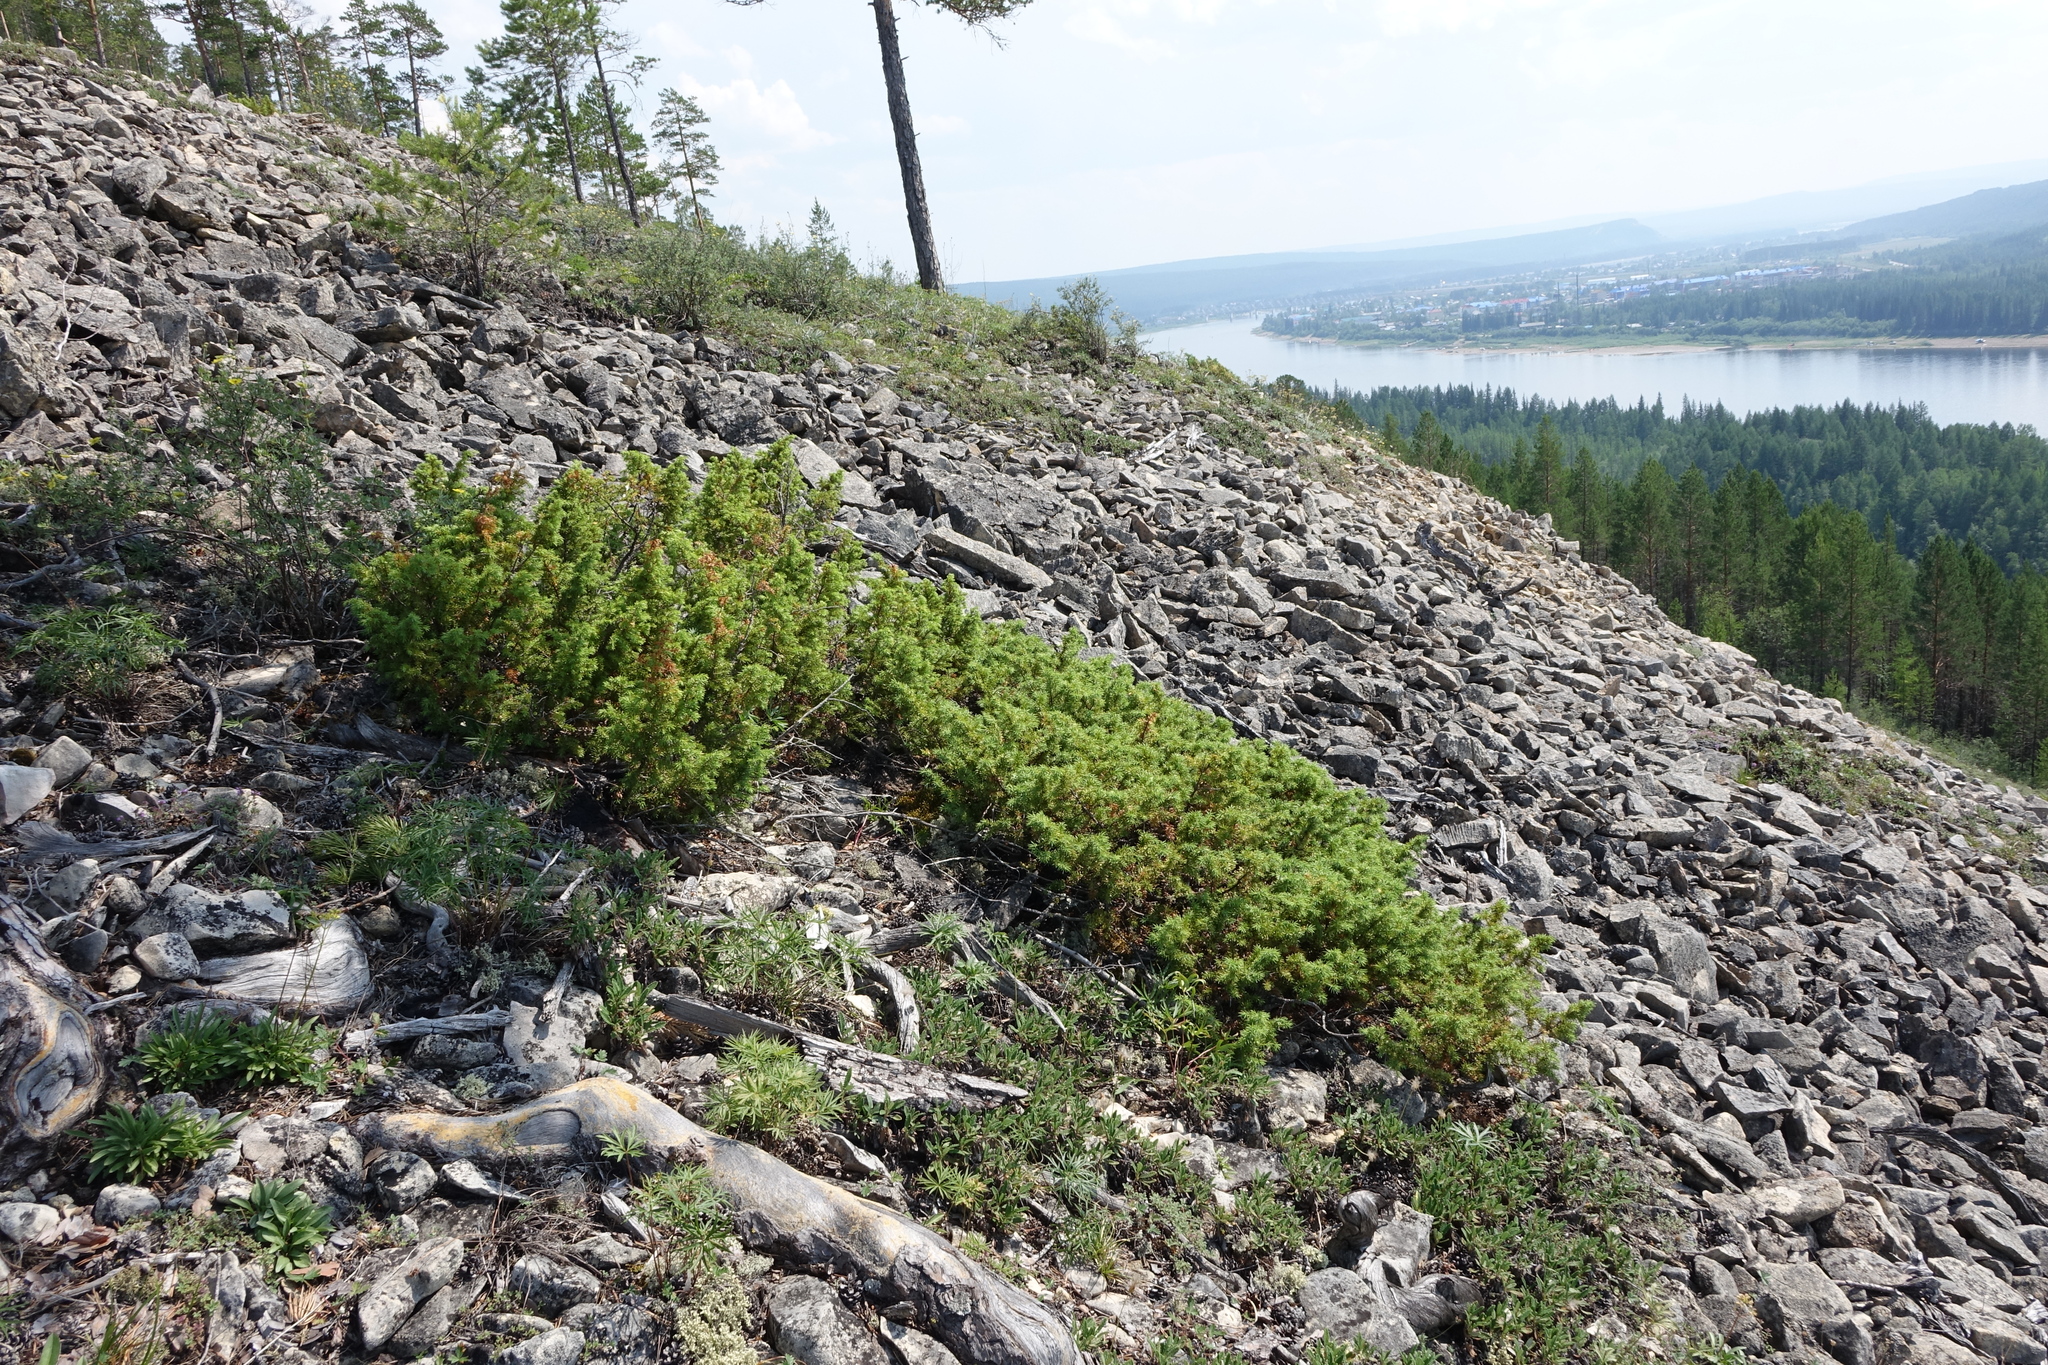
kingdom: Plantae
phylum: Tracheophyta
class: Pinopsida
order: Pinales
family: Cupressaceae
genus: Juniperus
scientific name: Juniperus communis
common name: Common juniper
